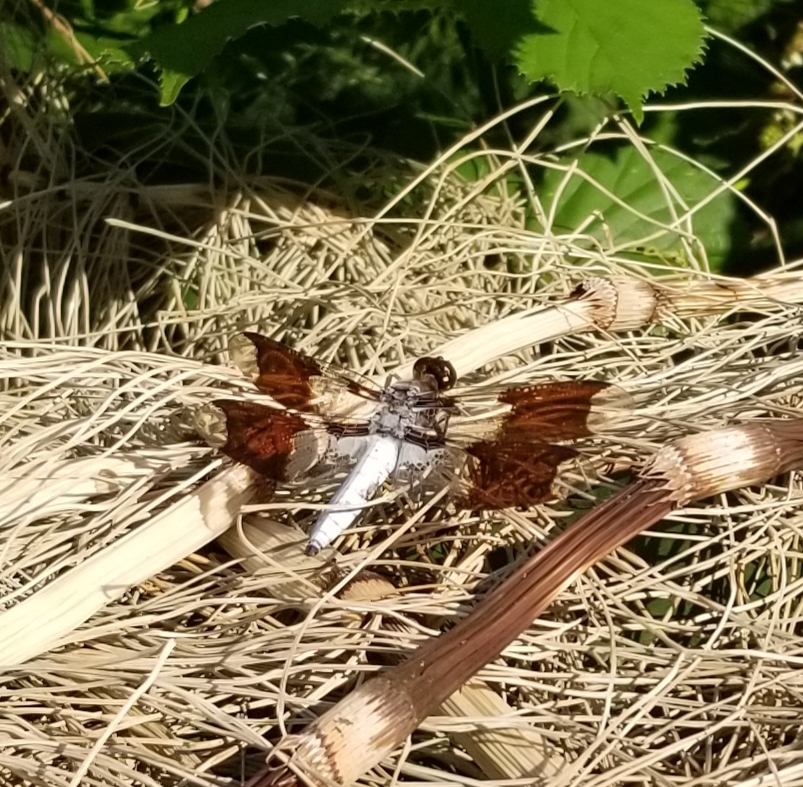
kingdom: Animalia
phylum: Arthropoda
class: Insecta
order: Odonata
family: Libellulidae
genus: Plathemis
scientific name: Plathemis lydia
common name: Common whitetail
